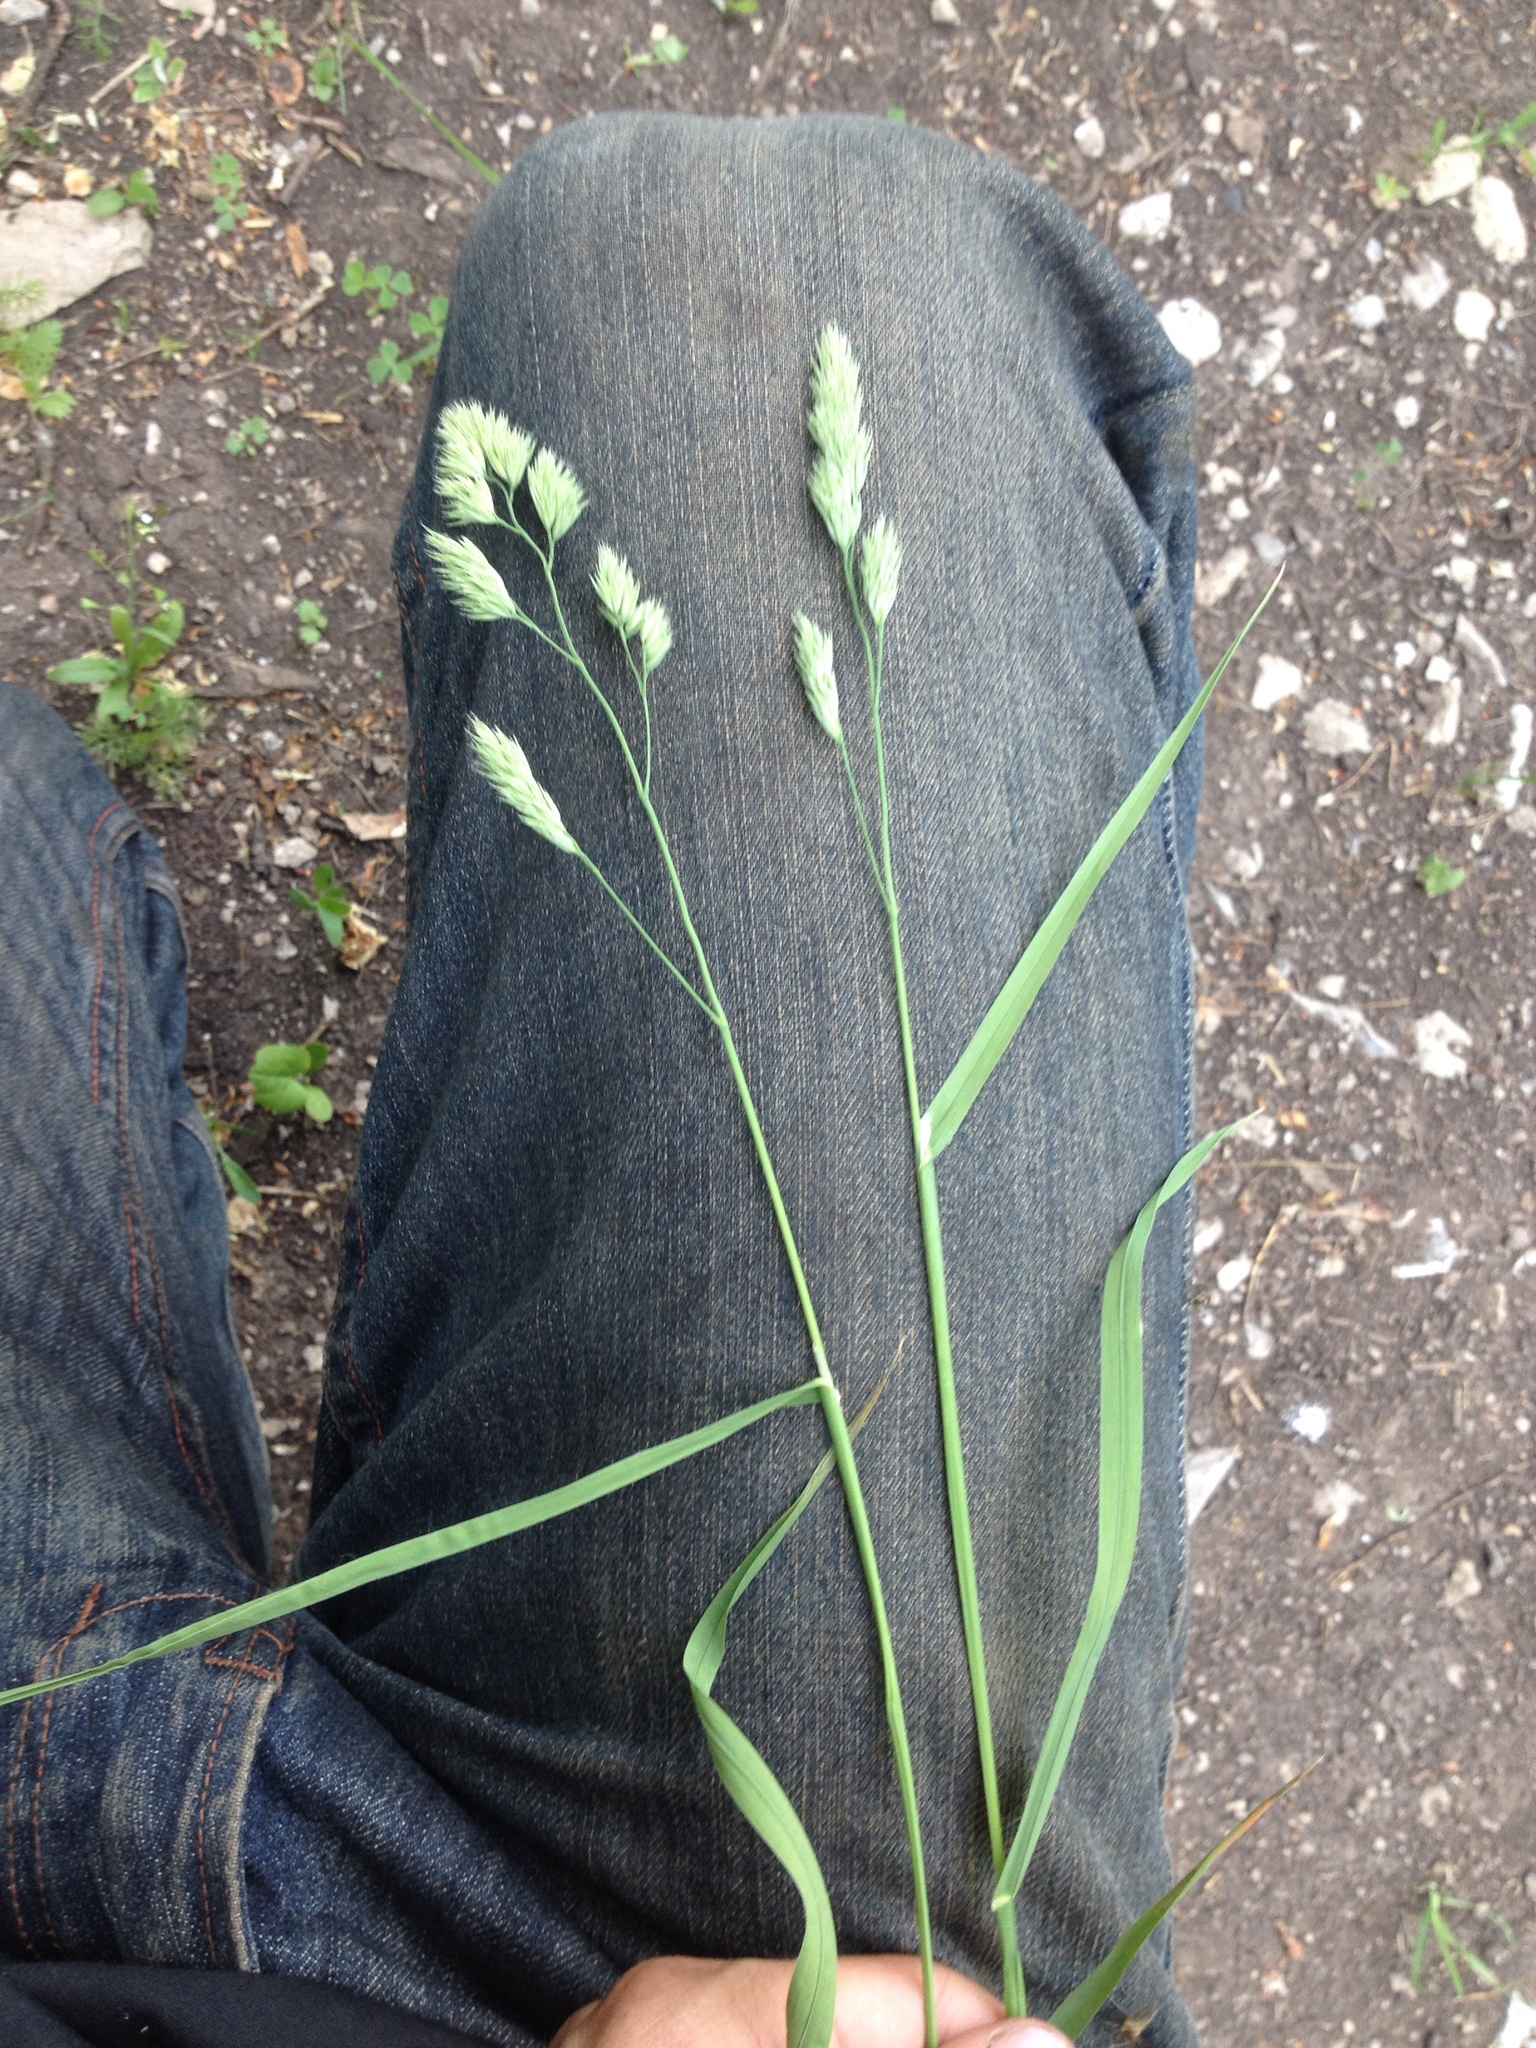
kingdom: Plantae
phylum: Tracheophyta
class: Liliopsida
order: Poales
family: Poaceae
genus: Dactylis
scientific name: Dactylis glomerata
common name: Orchardgrass
